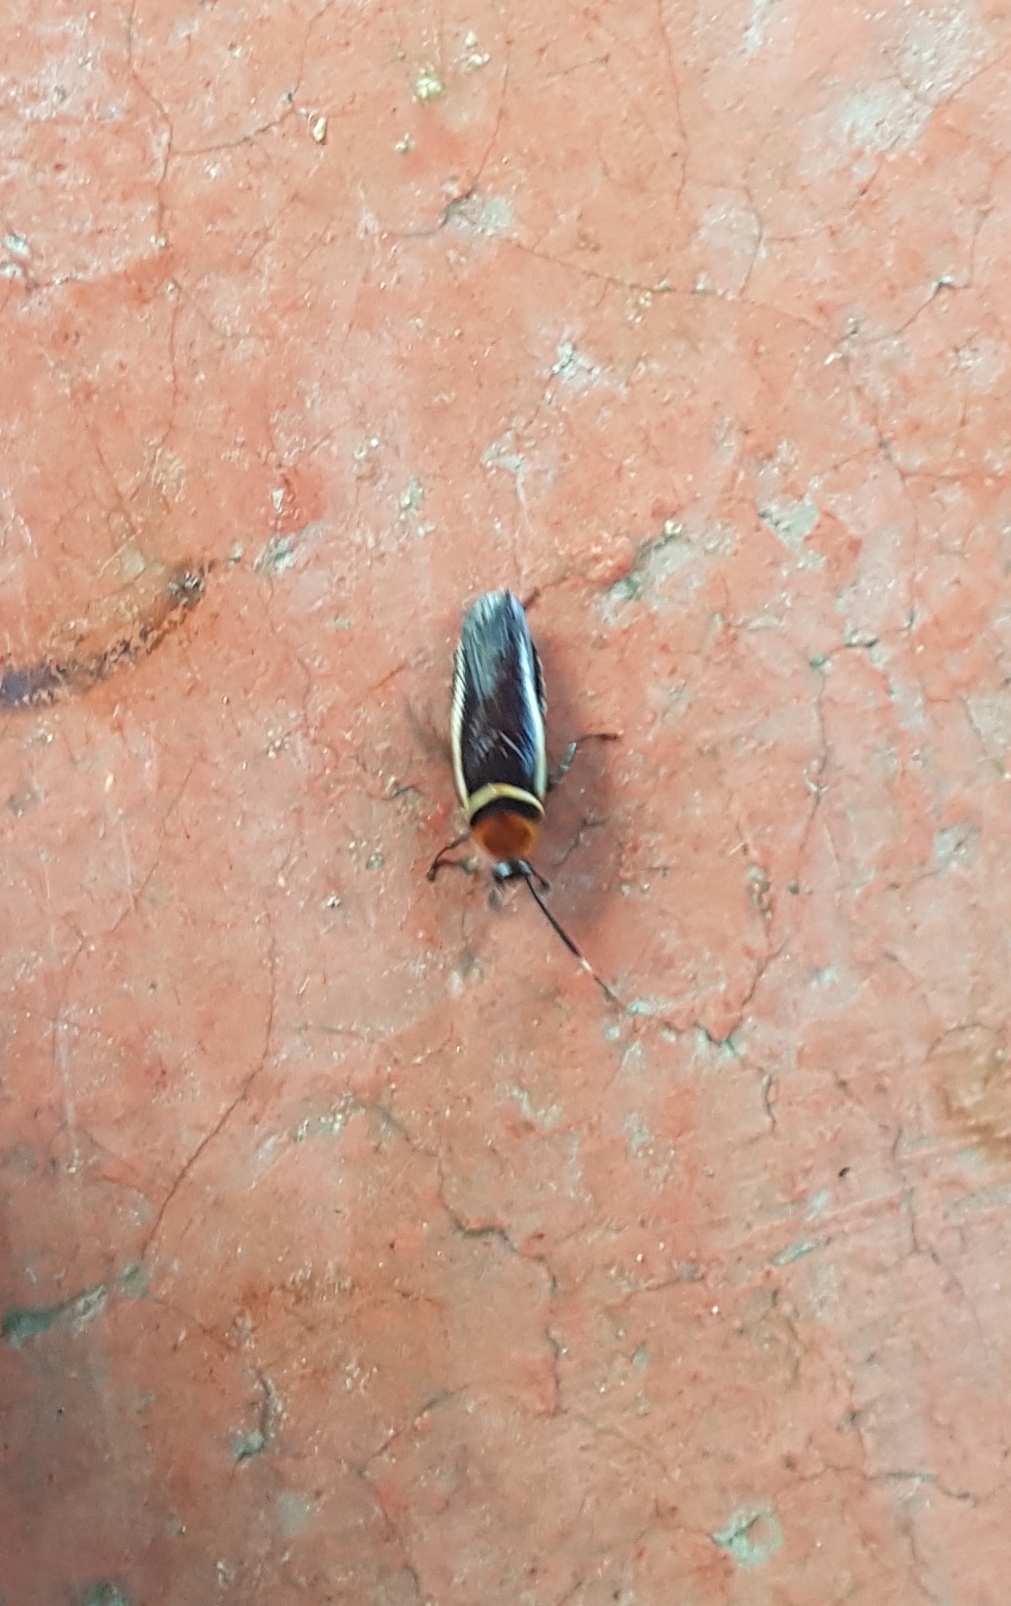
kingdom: Animalia
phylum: Arthropoda
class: Insecta
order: Blattodea
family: Ectobiidae
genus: Pseudomops
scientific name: Pseudomops cinctus
